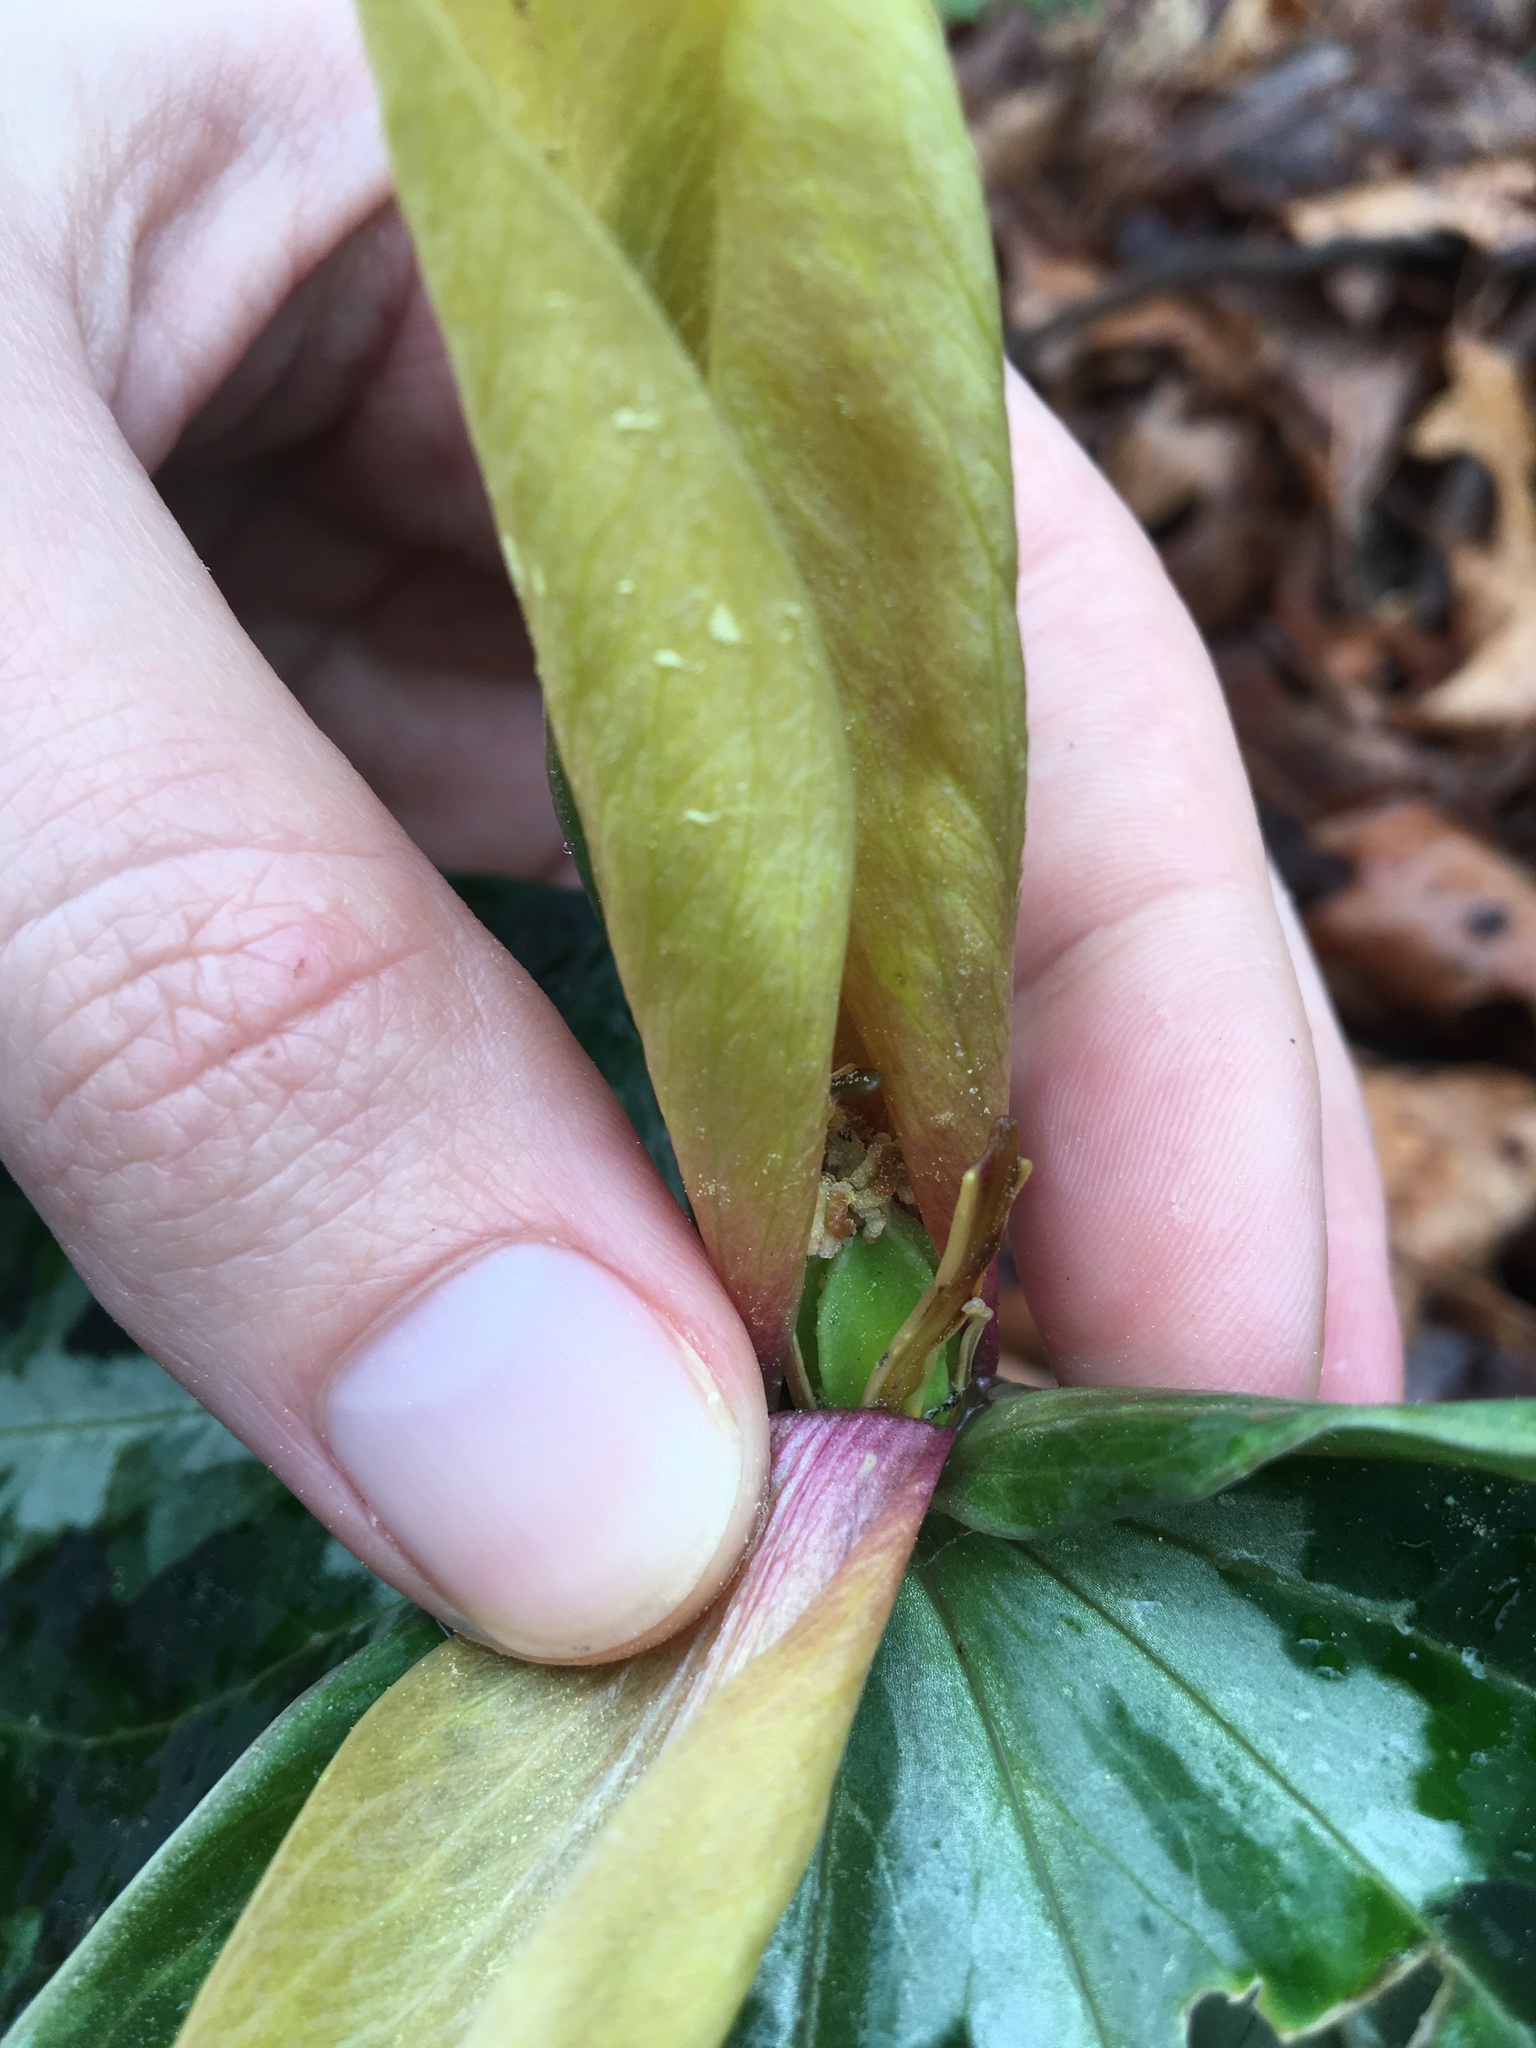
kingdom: Plantae
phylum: Tracheophyta
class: Liliopsida
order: Liliales
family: Melanthiaceae
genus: Trillium
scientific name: Trillium decipiens
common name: Chattahoochee river trillium
